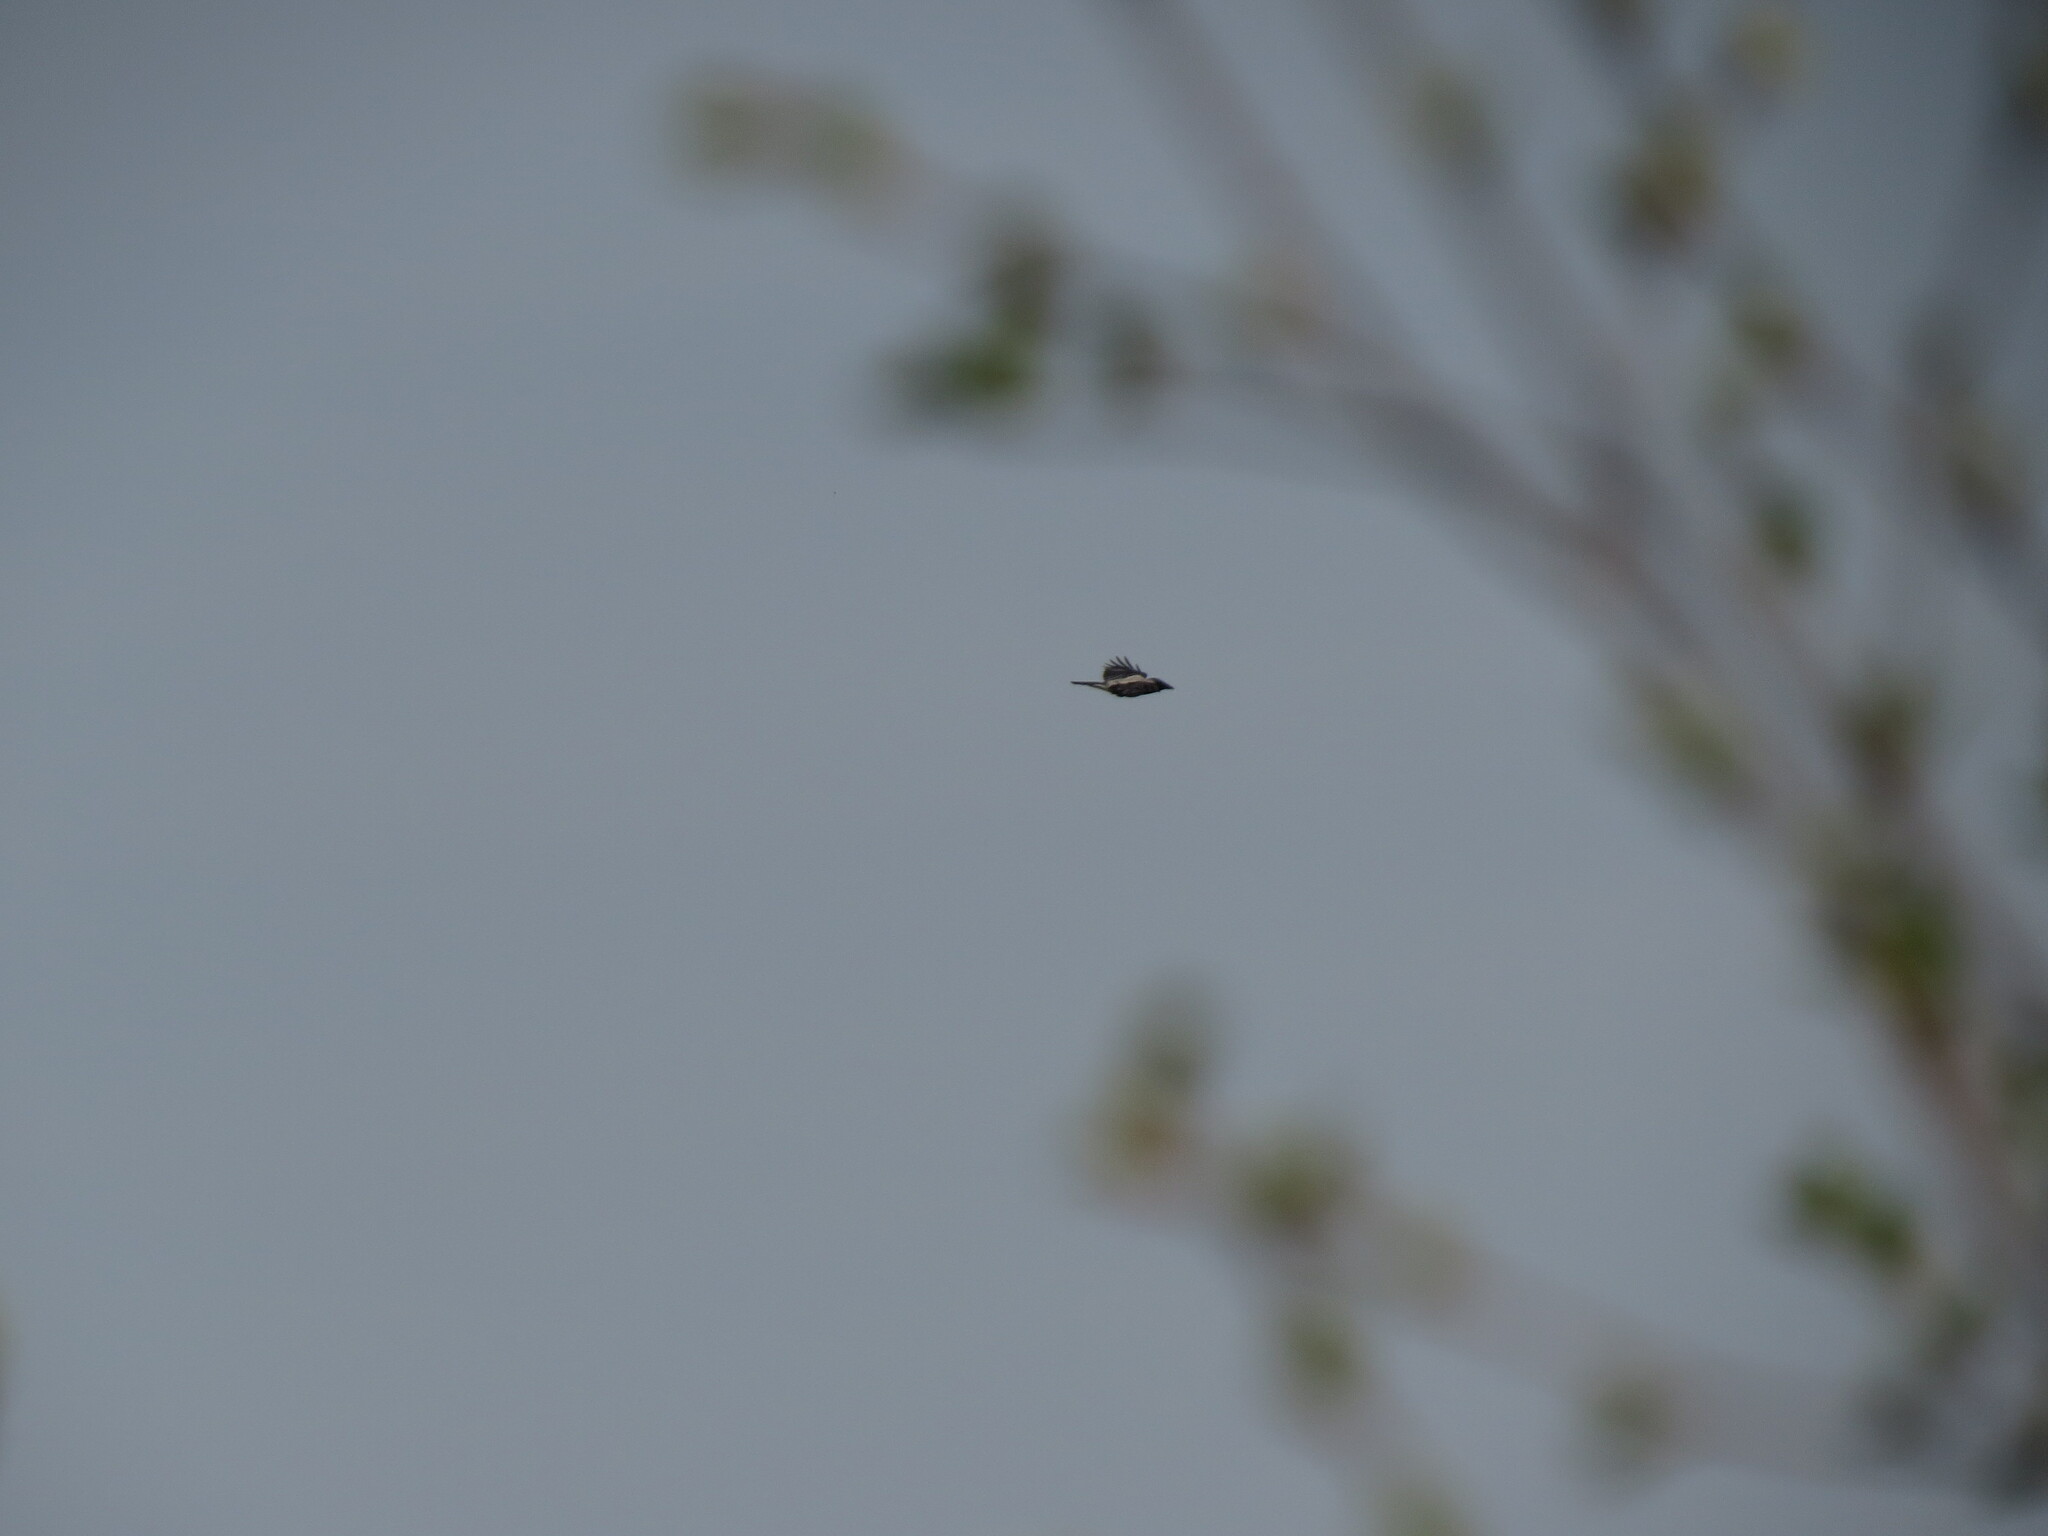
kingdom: Animalia
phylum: Chordata
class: Aves
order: Passeriformes
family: Corvidae
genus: Corvus
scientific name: Corvus cornix
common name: Hooded crow
